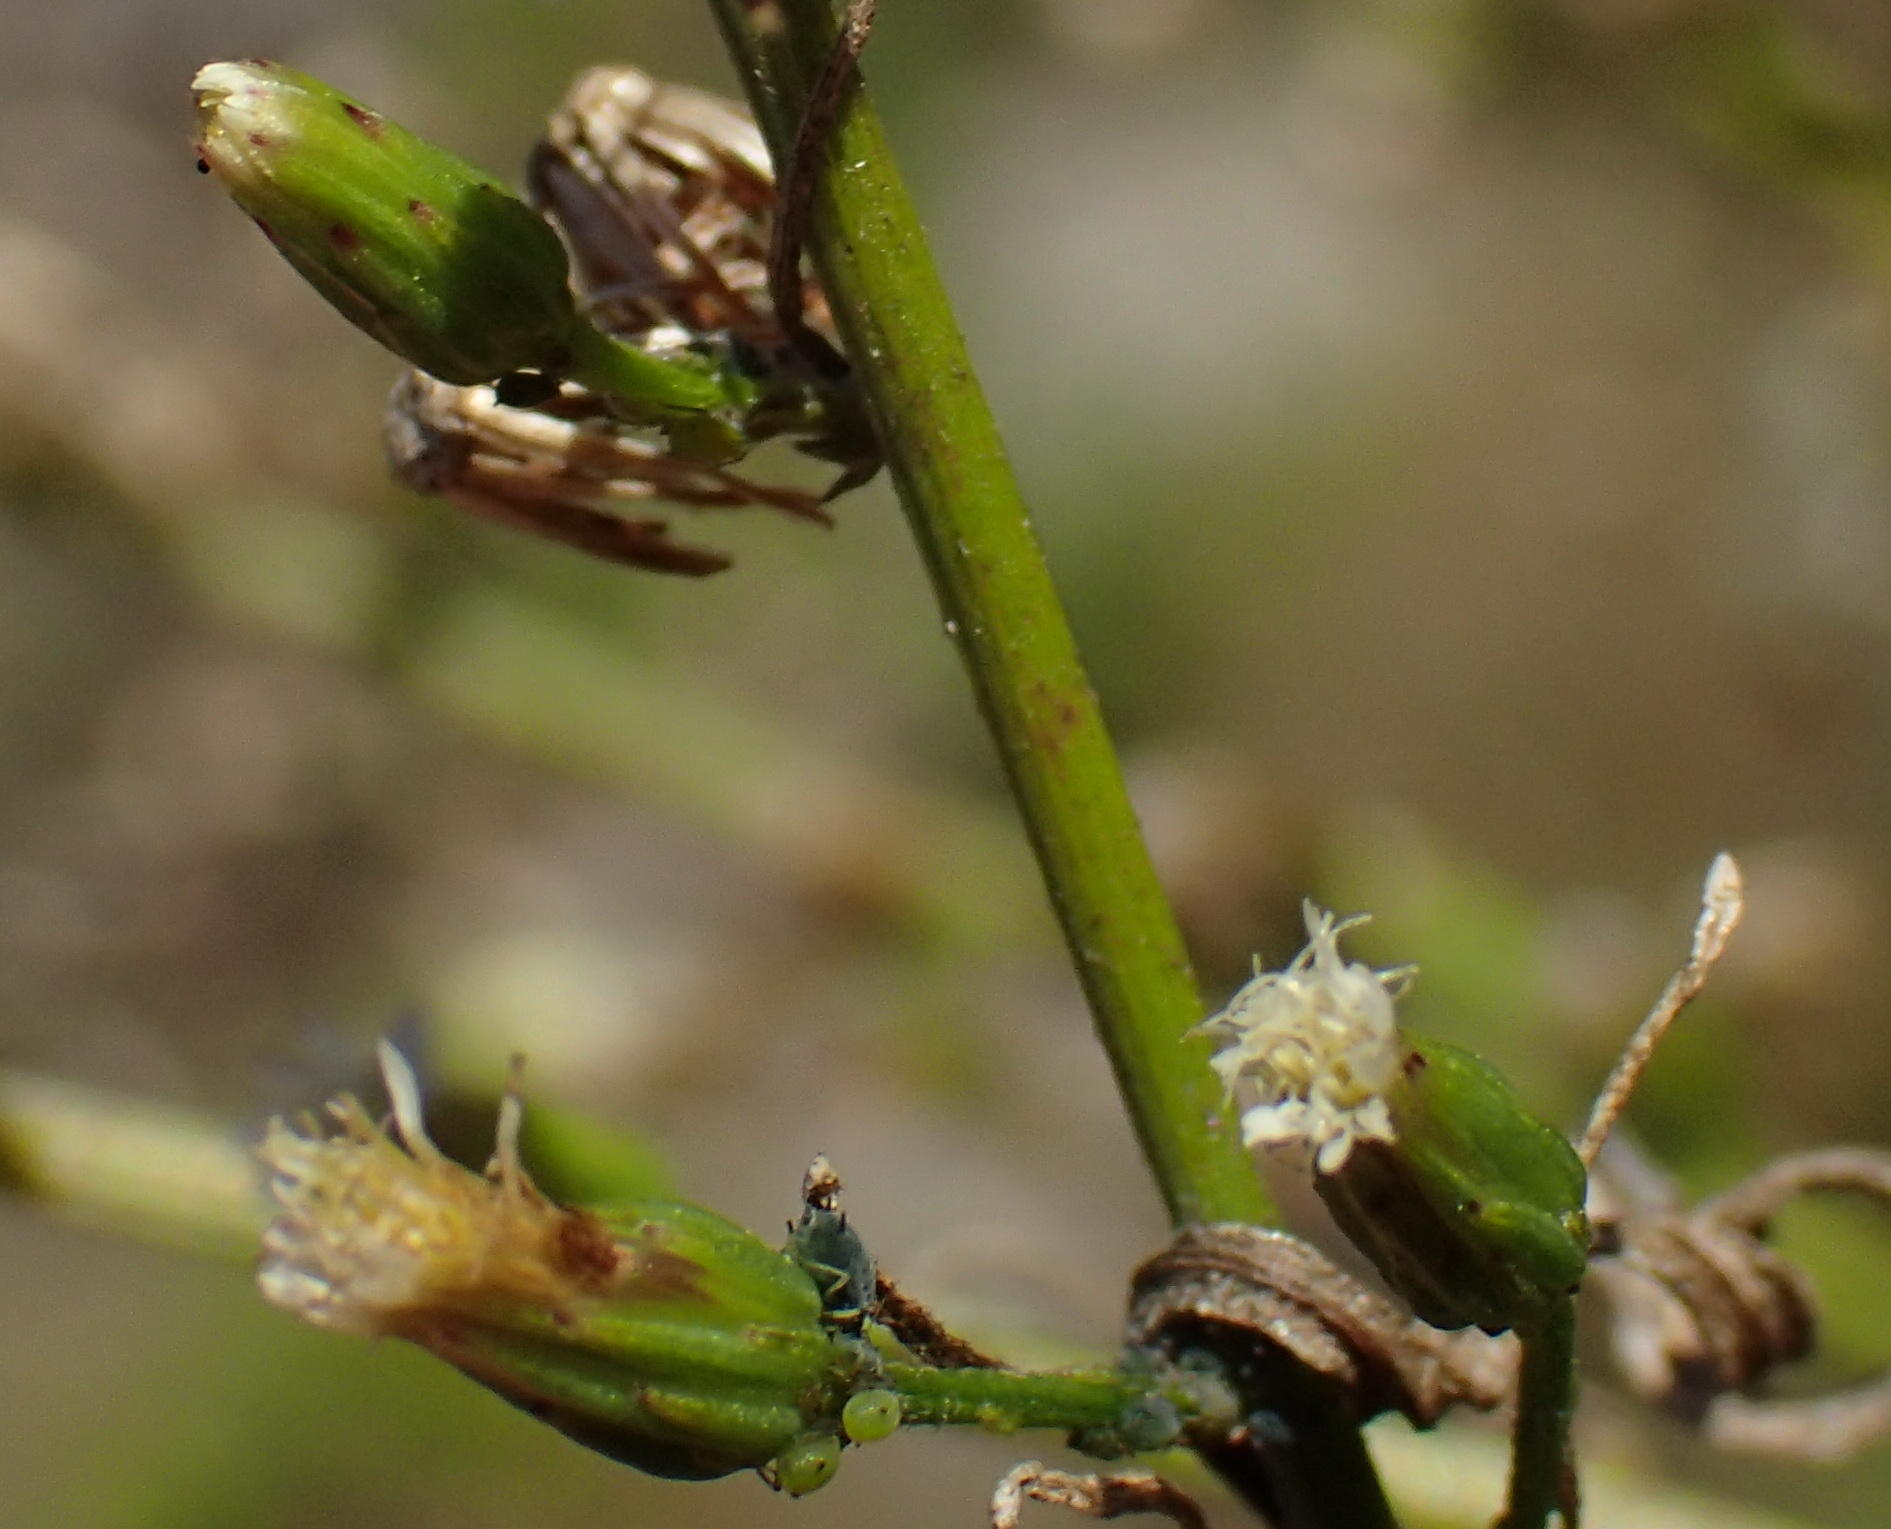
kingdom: Plantae
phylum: Tracheophyta
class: Magnoliopsida
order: Asterales
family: Asteraceae
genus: Erigeron
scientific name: Erigeron canadensis
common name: Canadian fleabane
